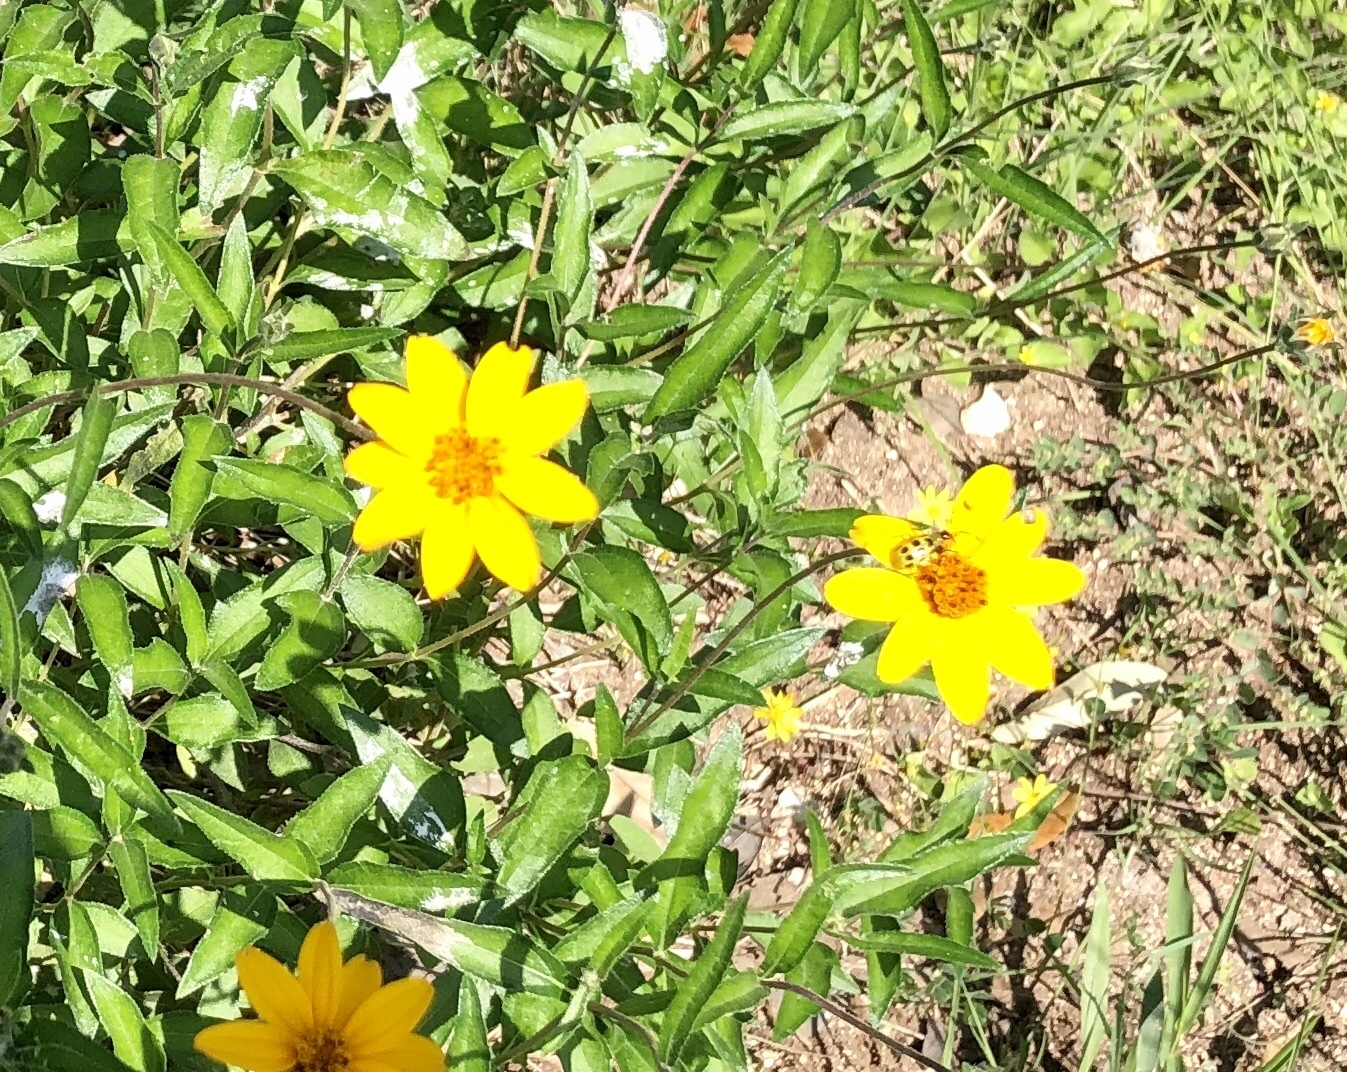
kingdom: Plantae
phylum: Tracheophyta
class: Magnoliopsida
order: Asterales
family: Asteraceae
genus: Wedelia
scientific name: Wedelia acapulcensis
